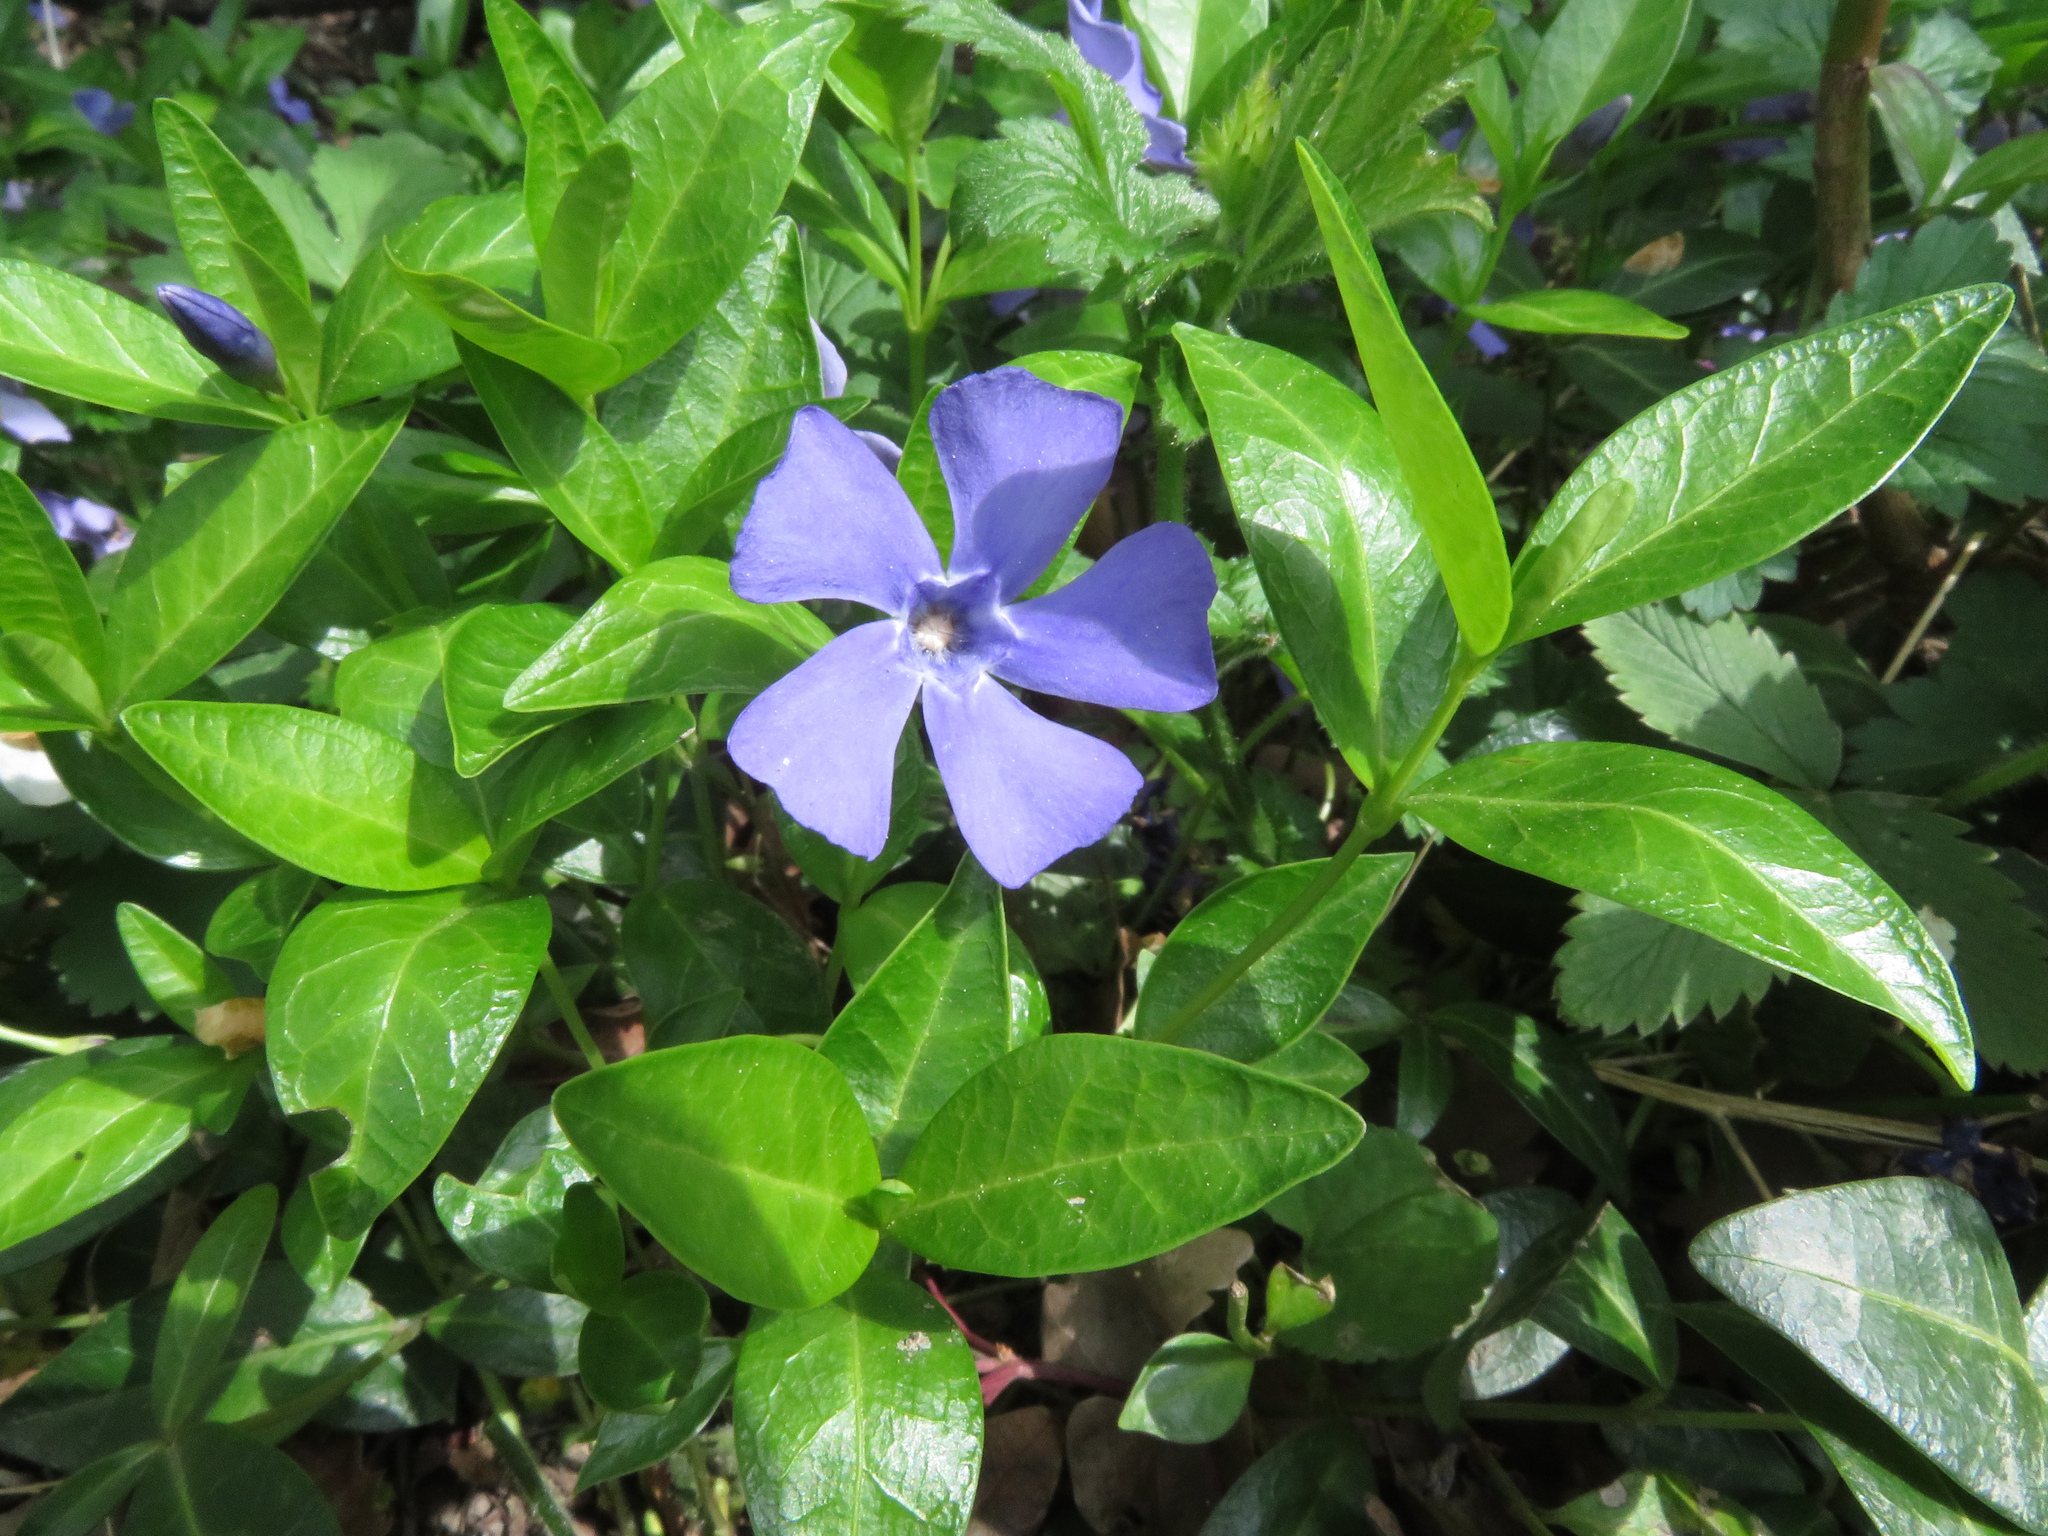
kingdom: Plantae
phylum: Tracheophyta
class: Magnoliopsida
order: Gentianales
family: Apocynaceae
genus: Vinca
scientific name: Vinca minor
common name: Lesser periwinkle
